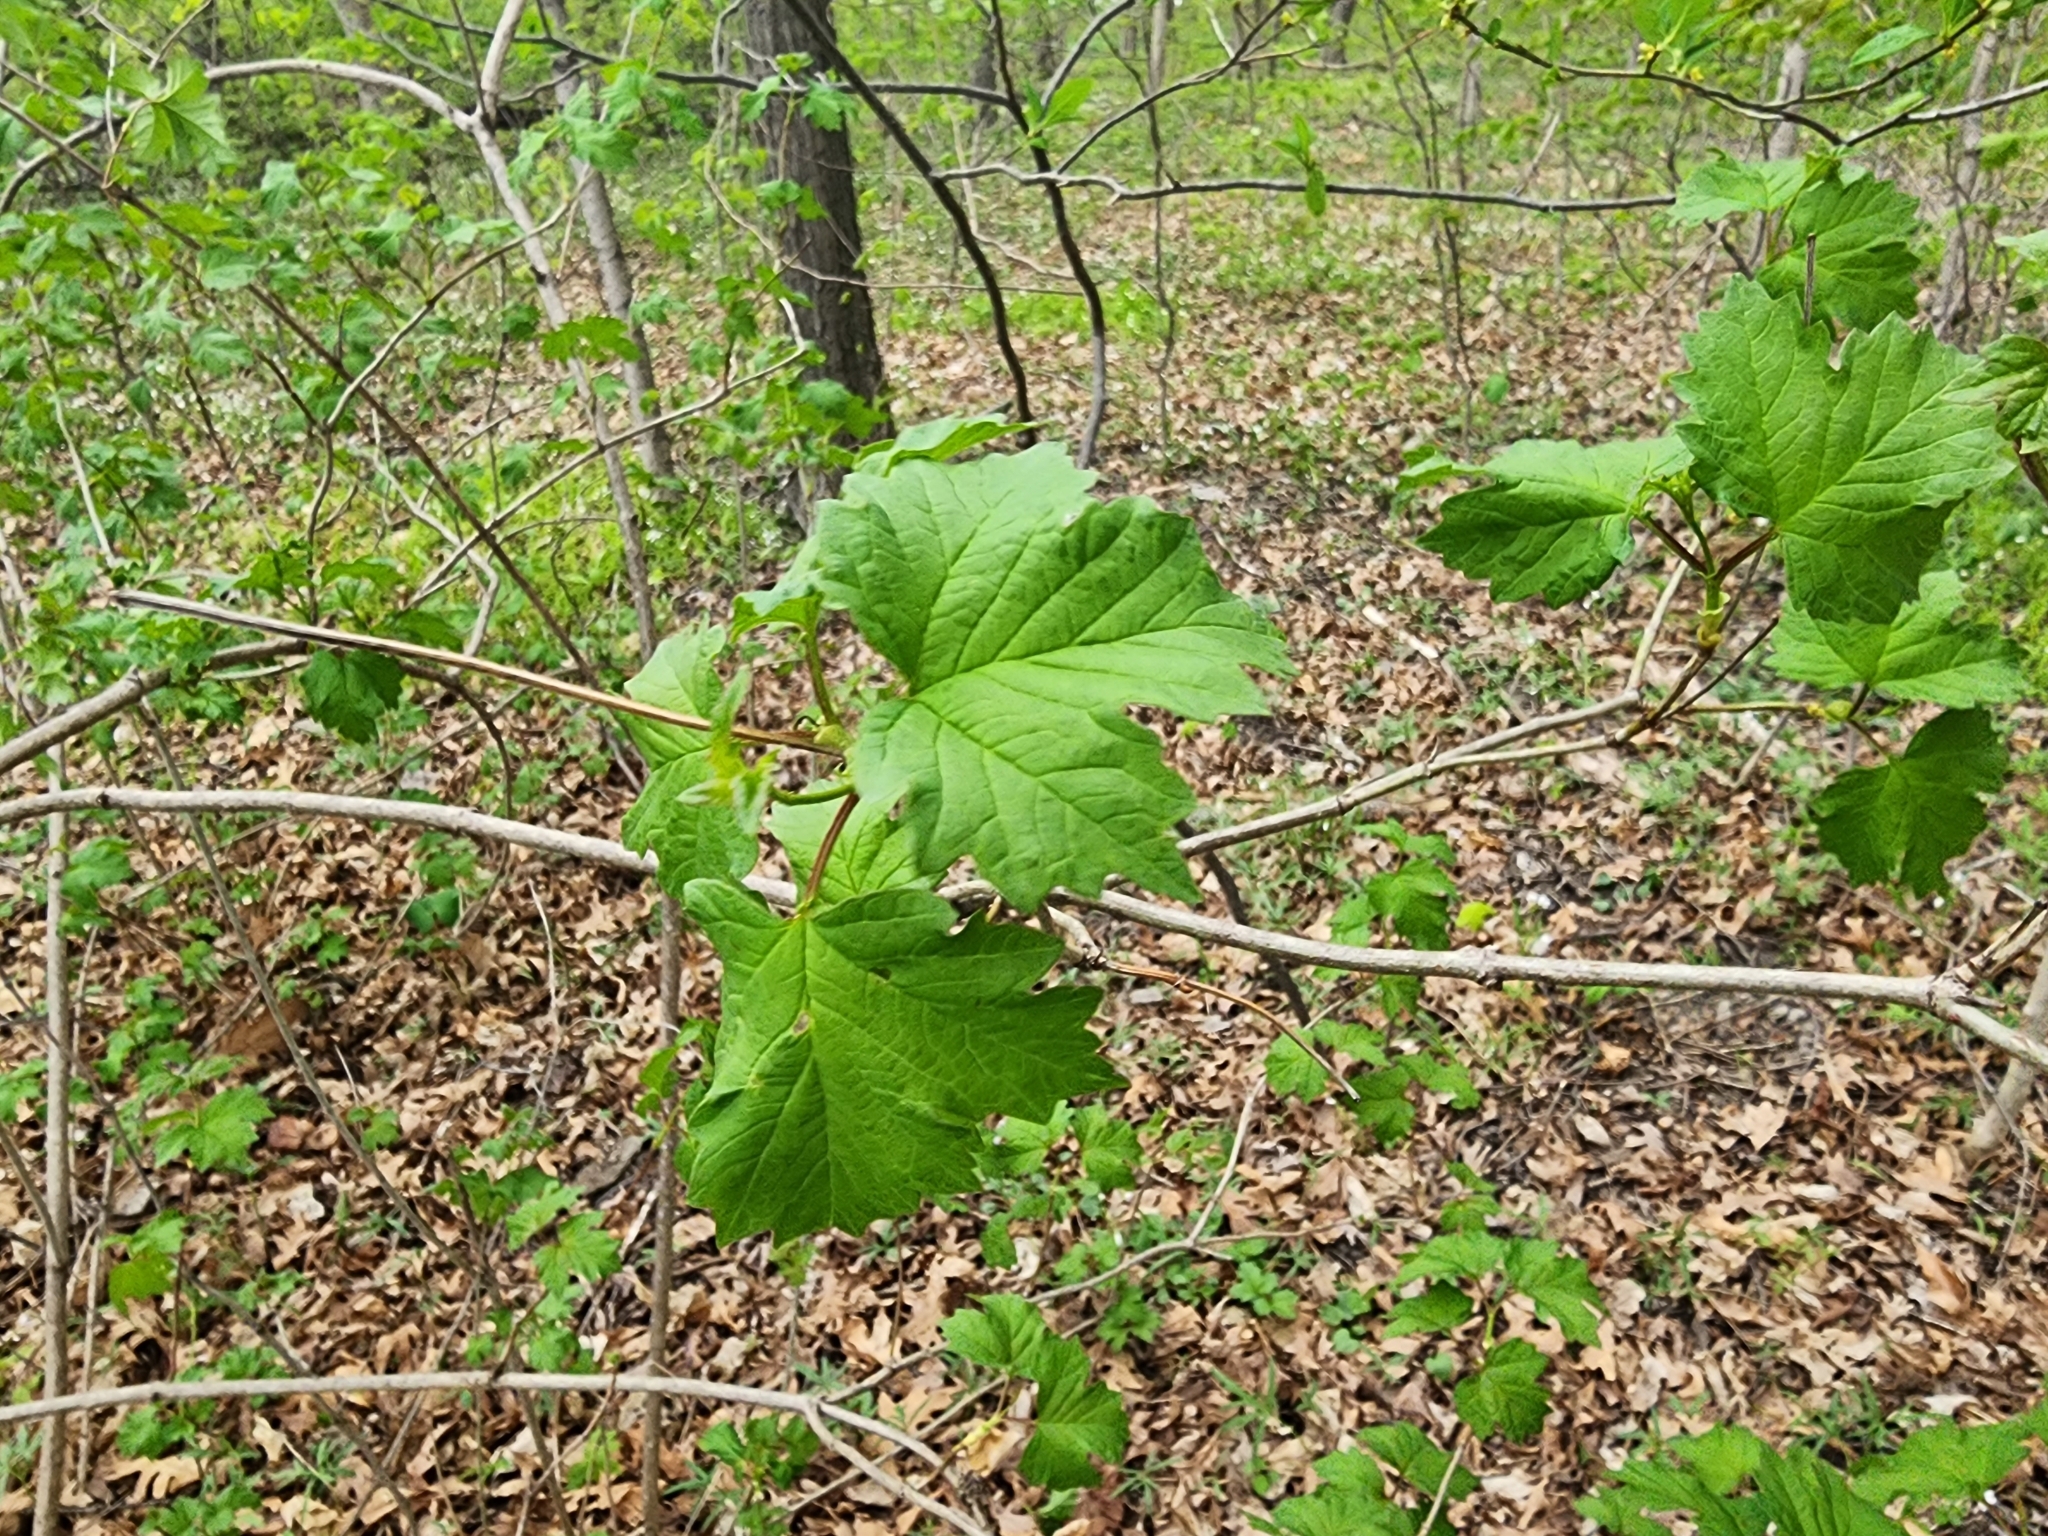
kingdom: Plantae
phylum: Tracheophyta
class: Magnoliopsida
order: Dipsacales
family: Viburnaceae
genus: Viburnum
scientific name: Viburnum trilobum
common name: American cranberrybush
